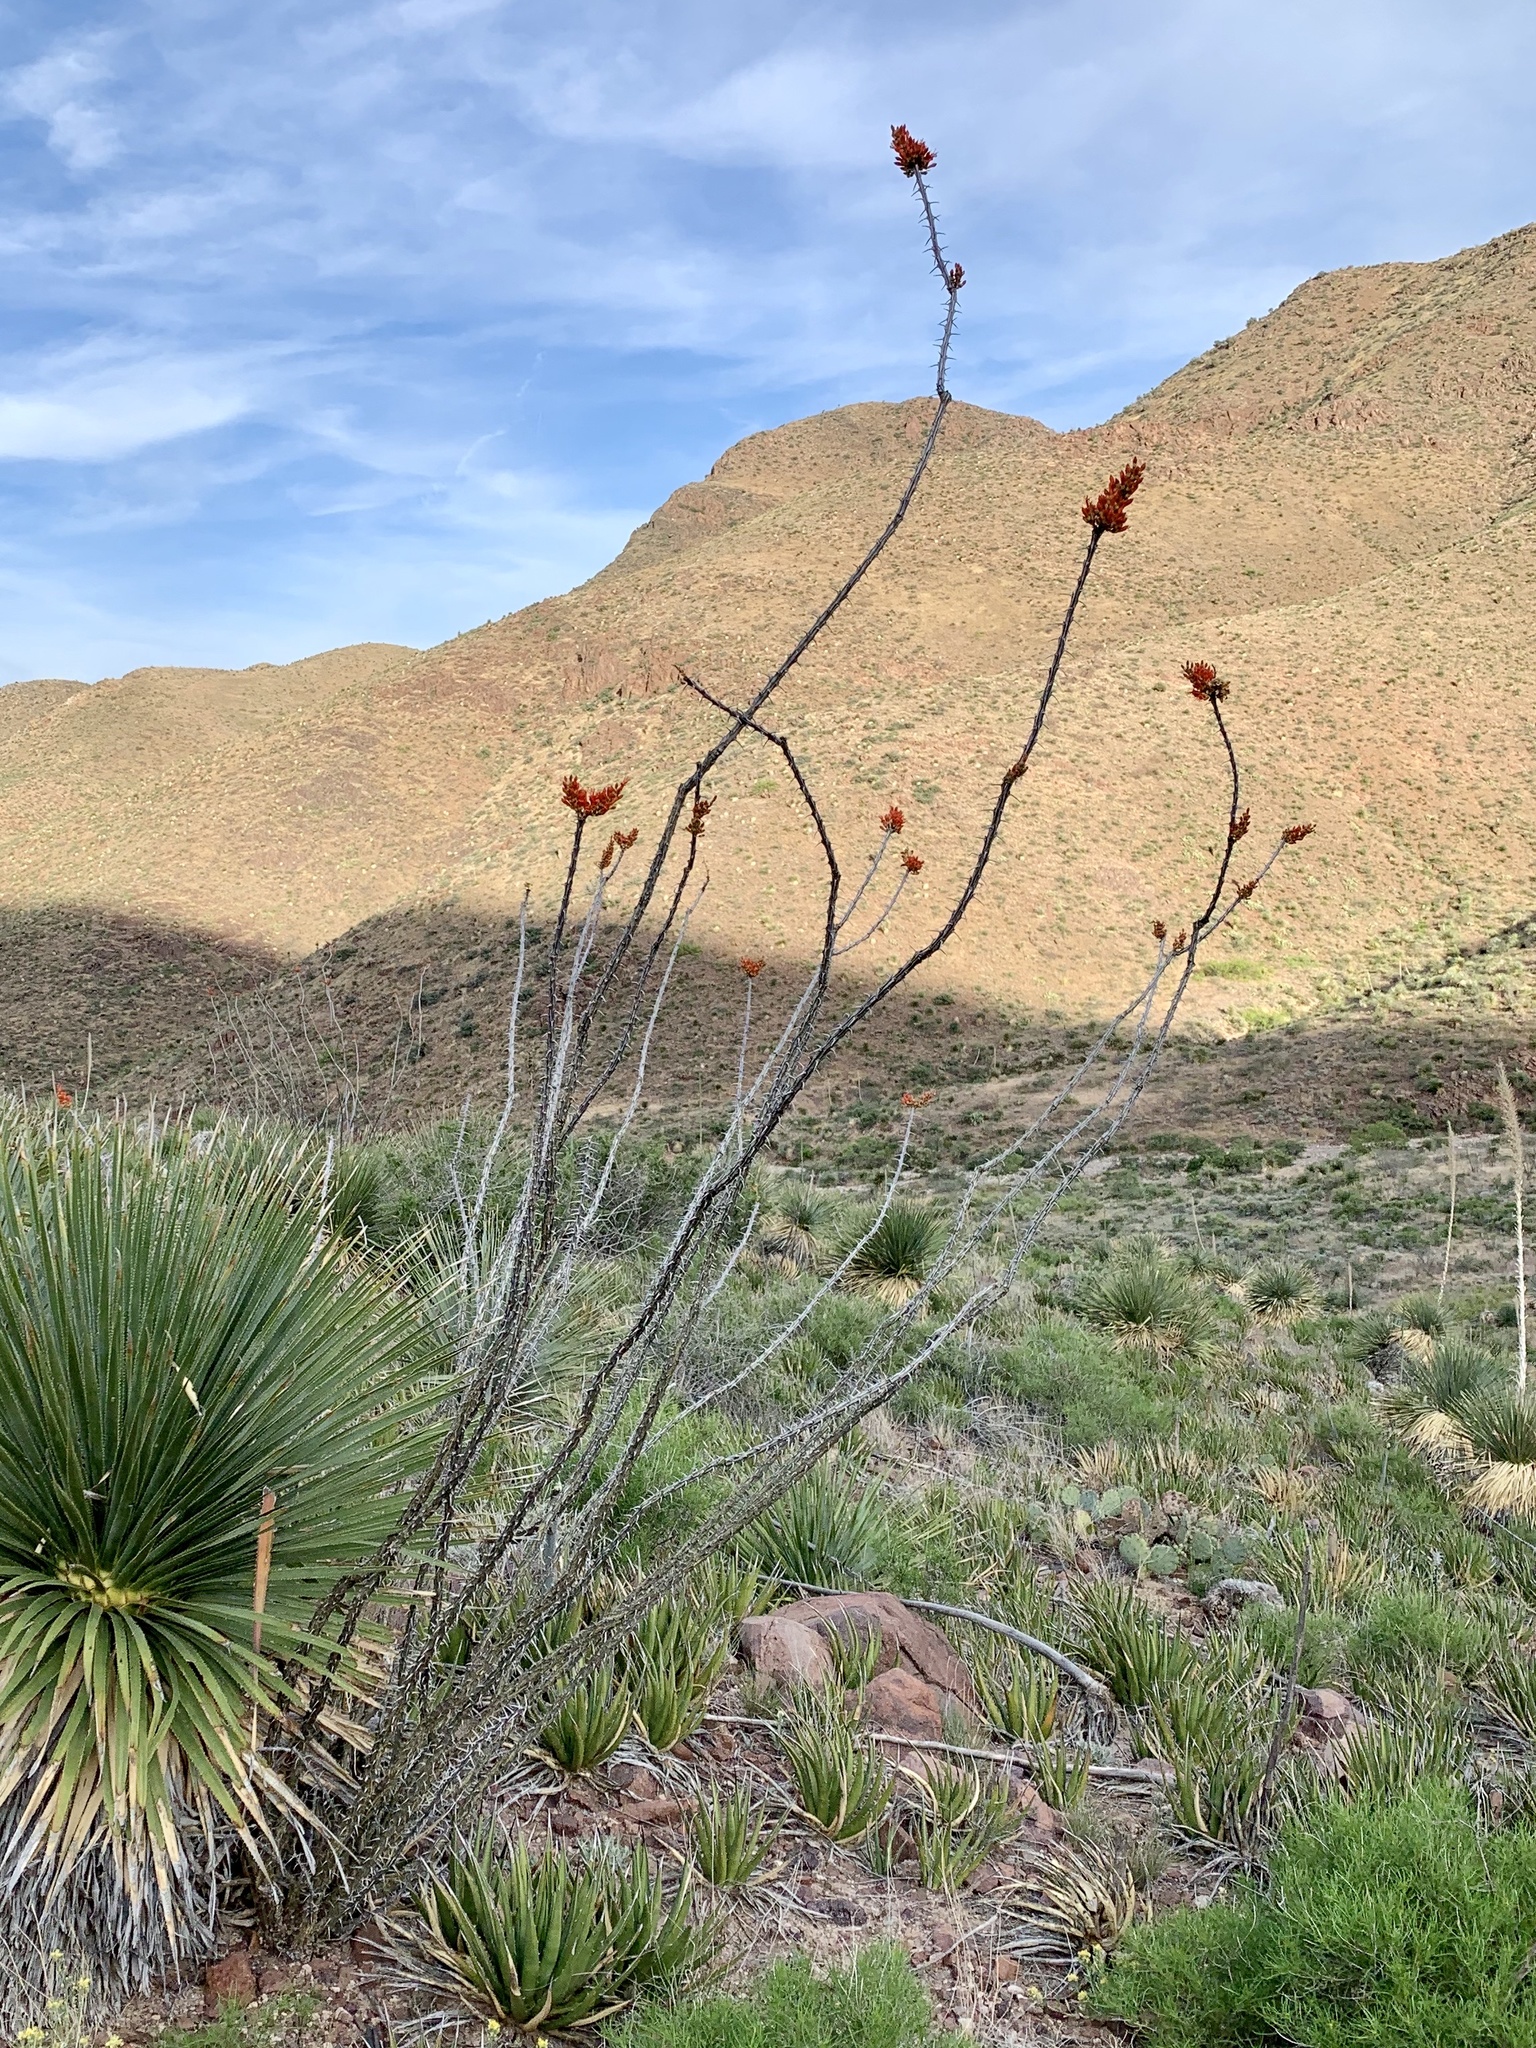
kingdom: Plantae
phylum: Tracheophyta
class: Magnoliopsida
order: Ericales
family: Fouquieriaceae
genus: Fouquieria
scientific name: Fouquieria splendens
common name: Vine-cactus
